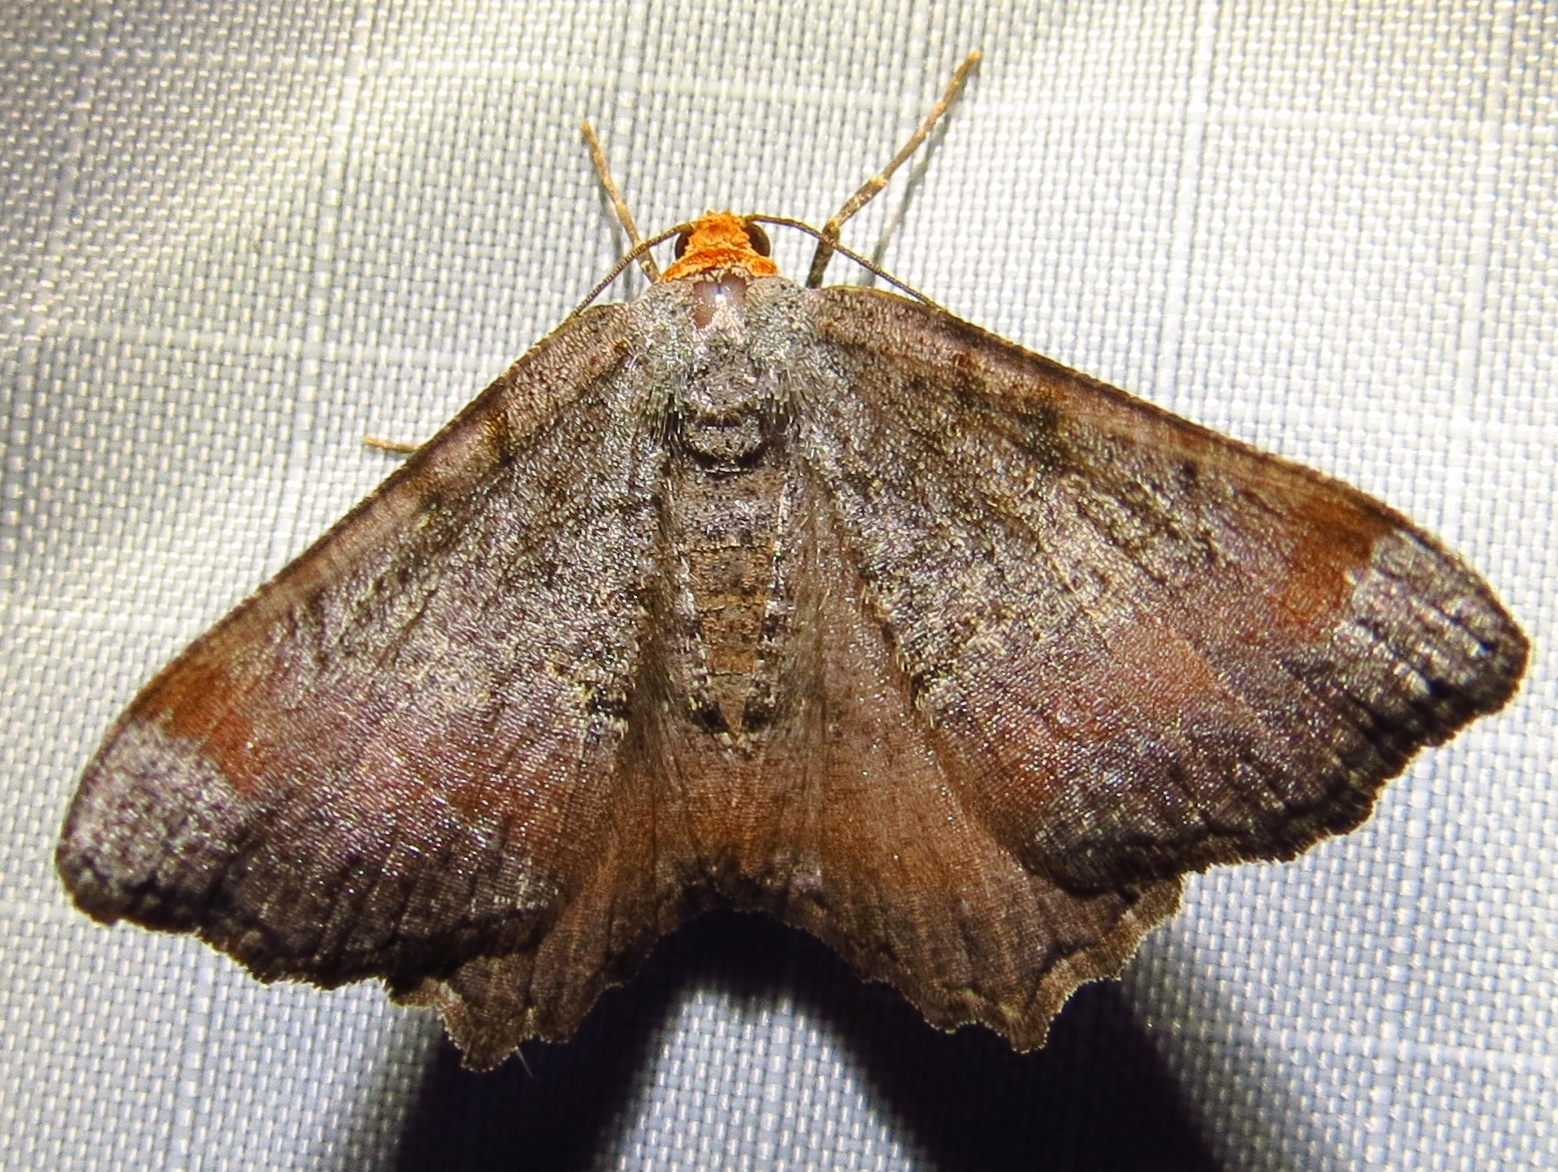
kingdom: Animalia
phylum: Arthropoda
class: Insecta
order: Lepidoptera
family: Geometridae
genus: Macaria
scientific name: Macaria transitaria
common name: Blurry chocolate angle
